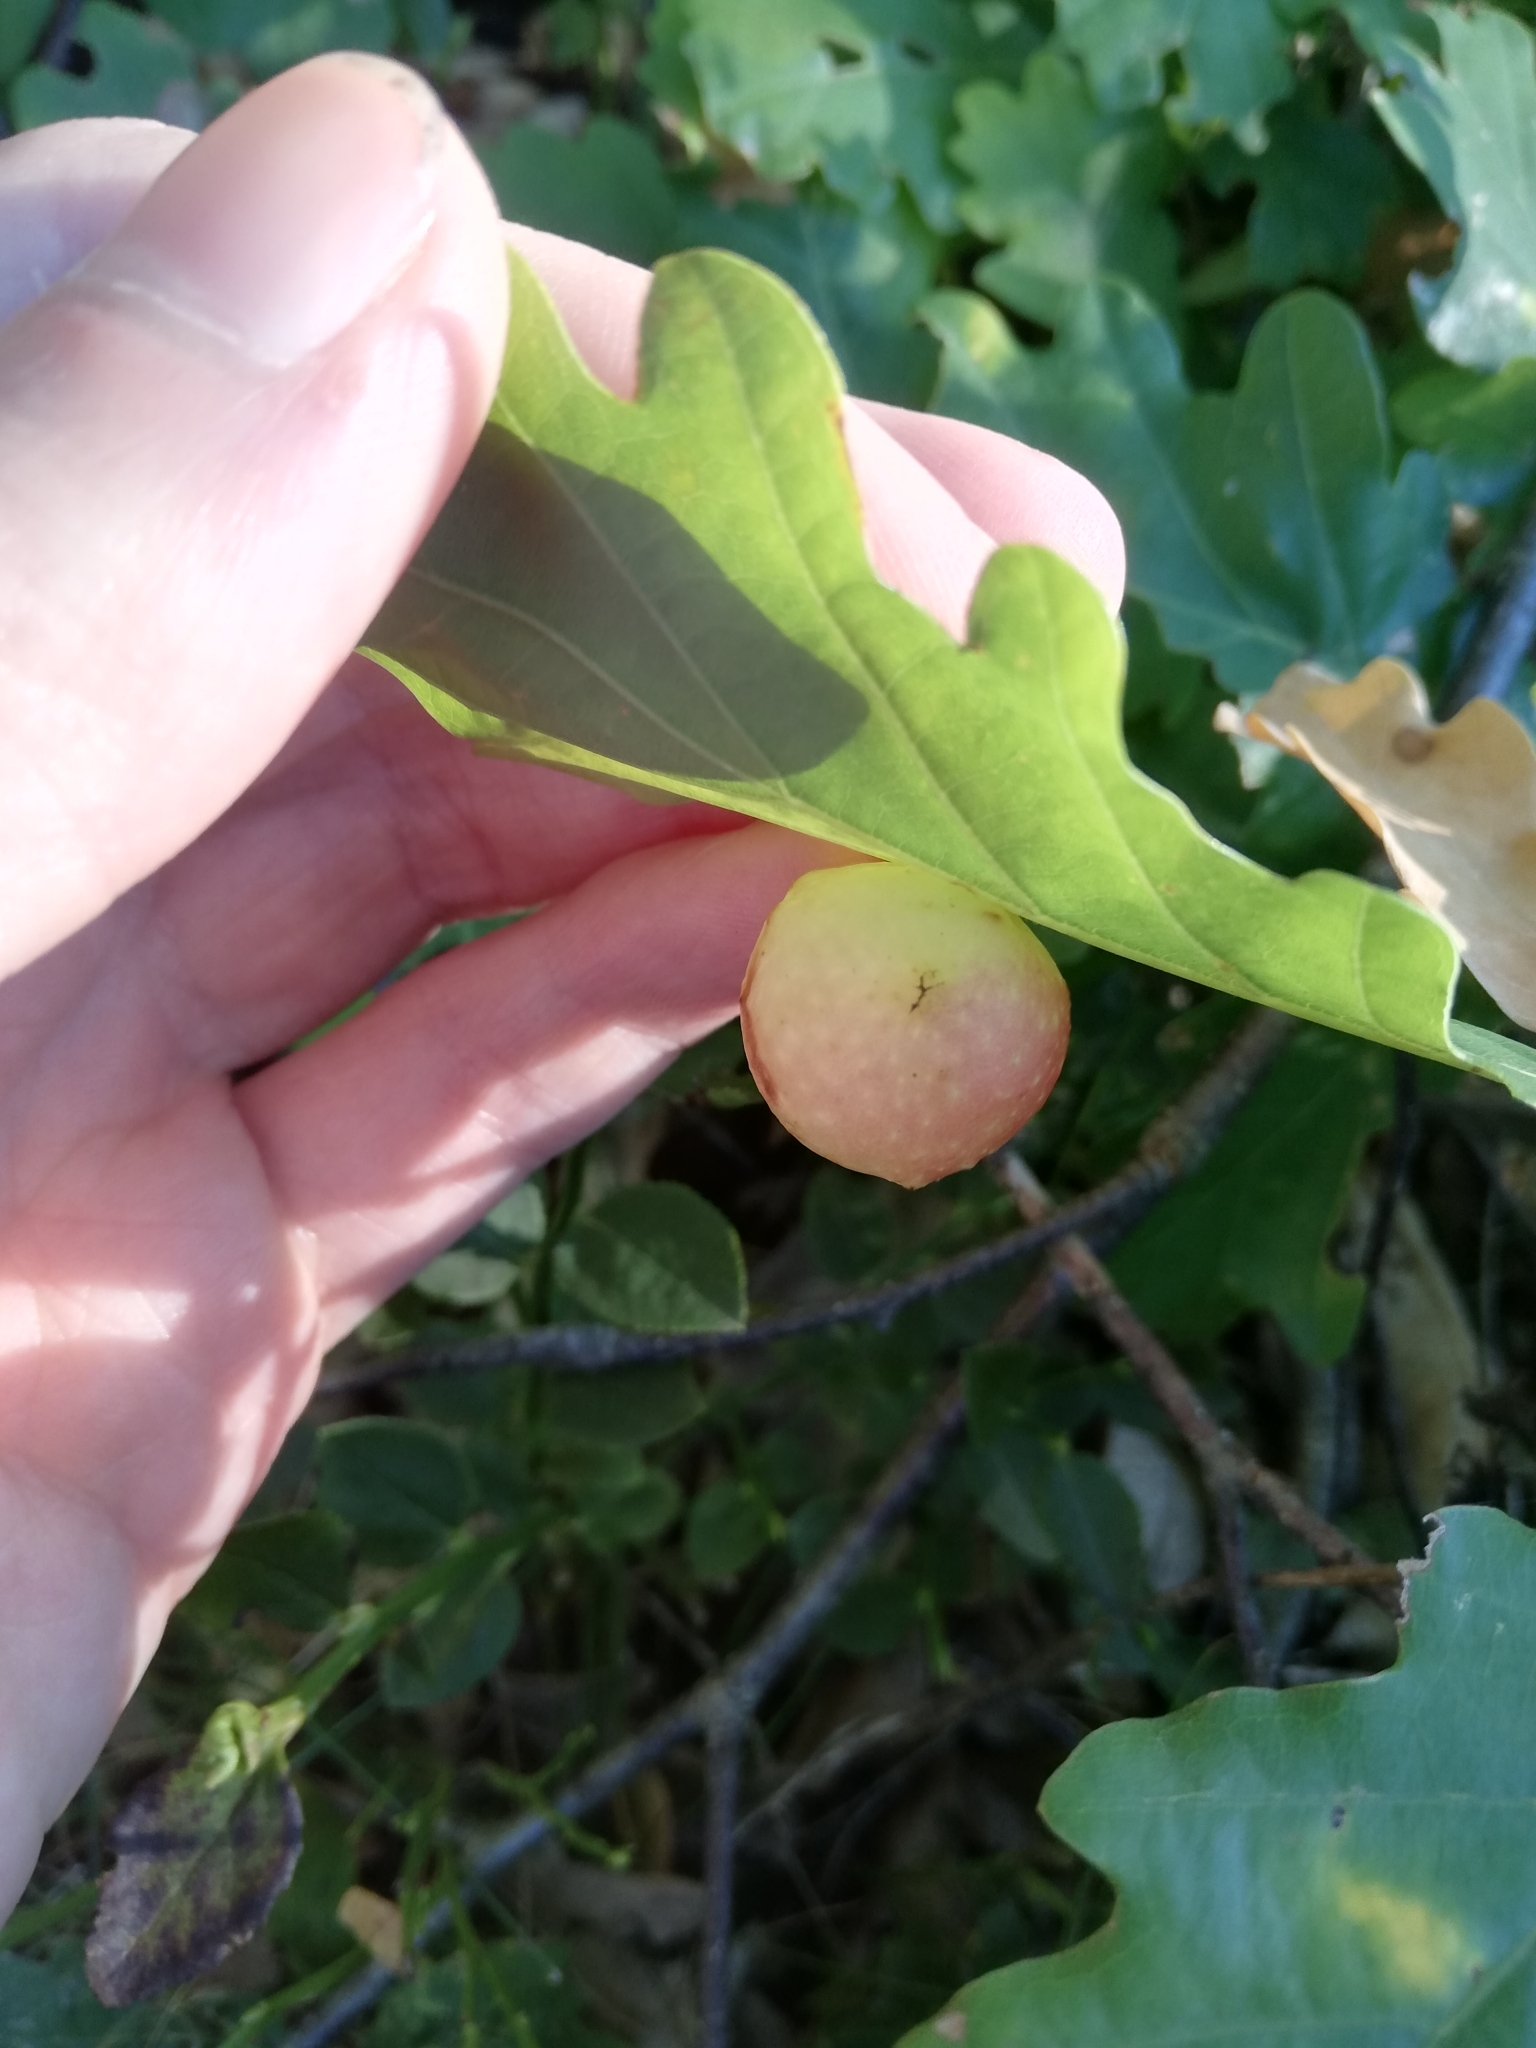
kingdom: Animalia
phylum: Arthropoda
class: Insecta
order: Hymenoptera
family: Cynipidae
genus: Cynips
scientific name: Cynips quercusfolii
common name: Cherry gall
